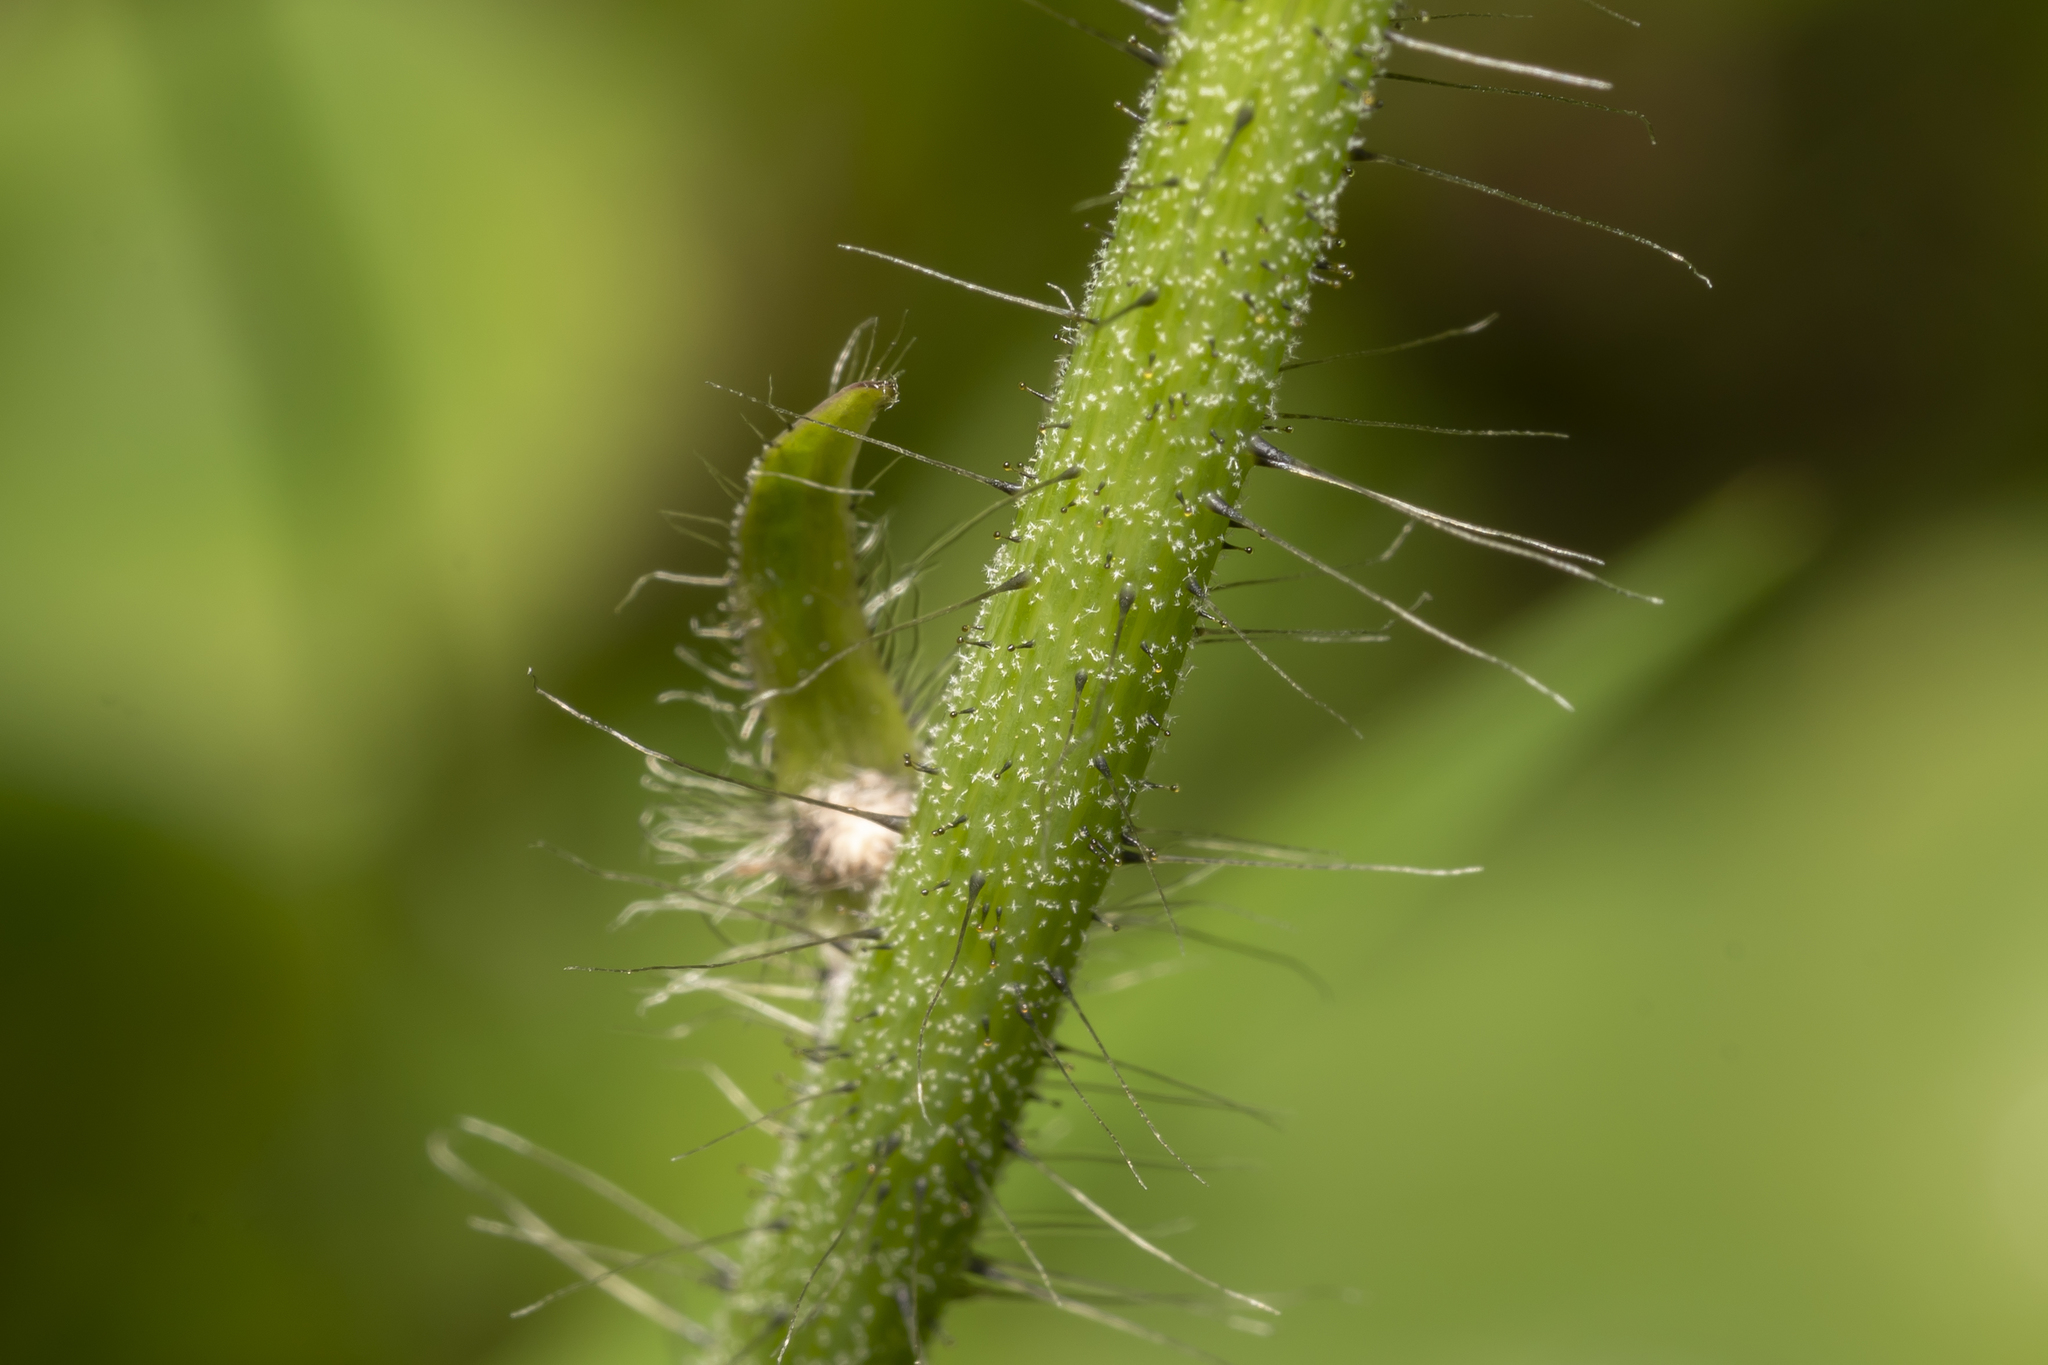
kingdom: Plantae
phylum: Tracheophyta
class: Magnoliopsida
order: Asterales
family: Asteraceae
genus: Pilosella
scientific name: Pilosella aurantiaca
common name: Fox-and-cubs
